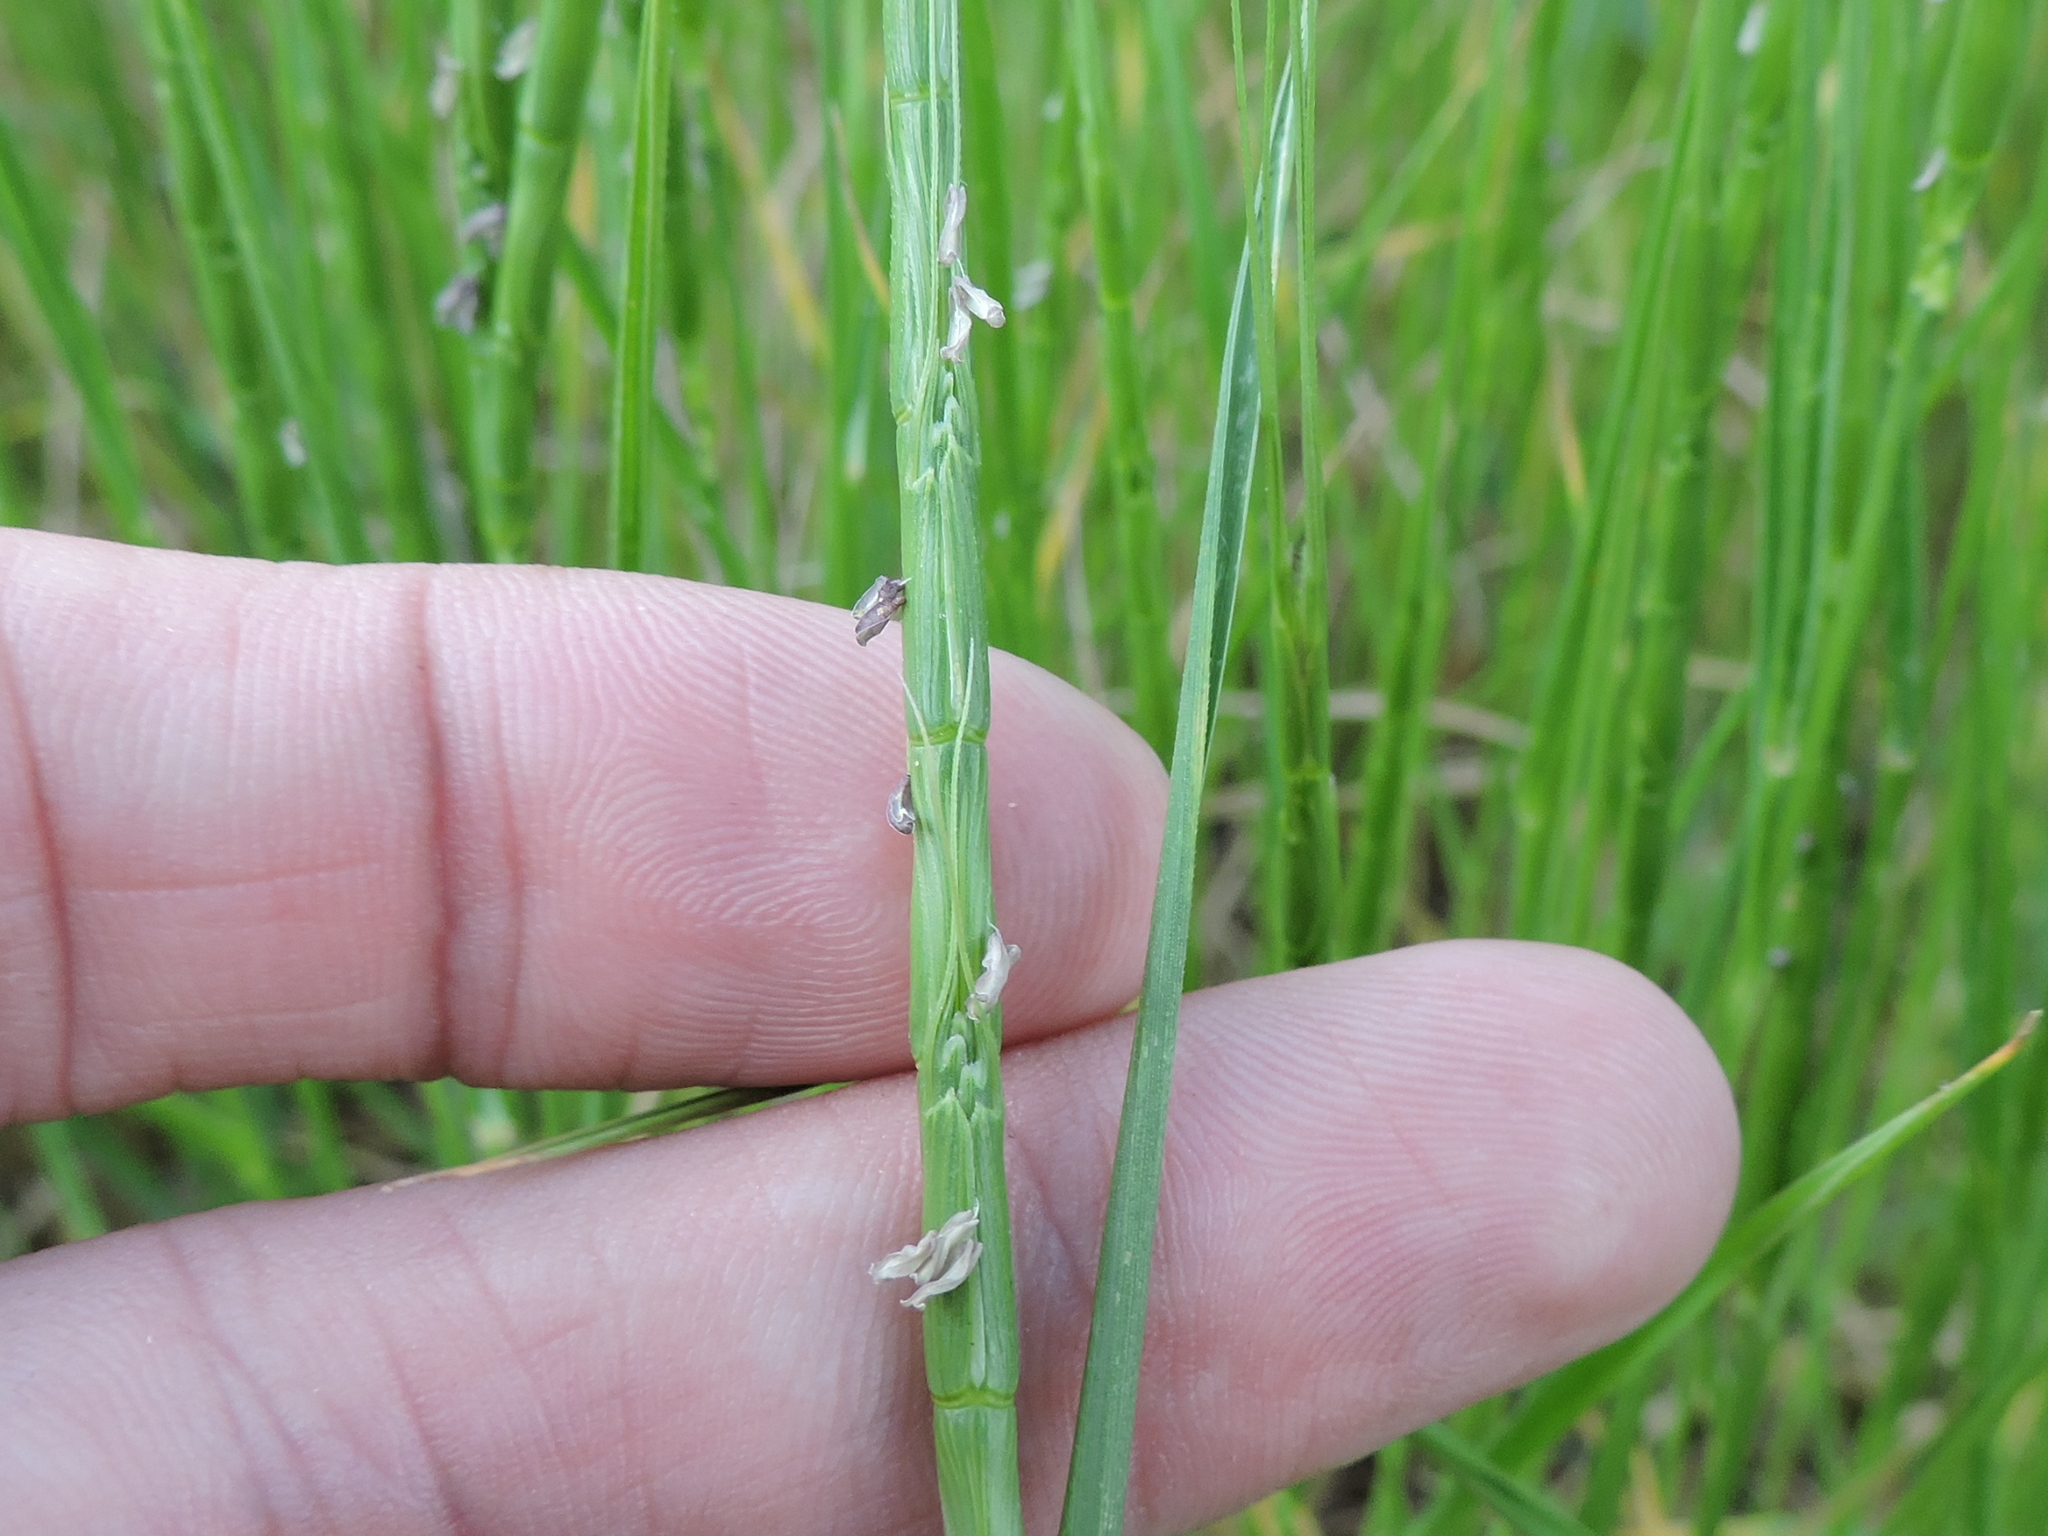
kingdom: Plantae
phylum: Tracheophyta
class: Liliopsida
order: Poales
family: Poaceae
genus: Aegilops
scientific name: Aegilops cylindrica
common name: Jointed goatgrass
